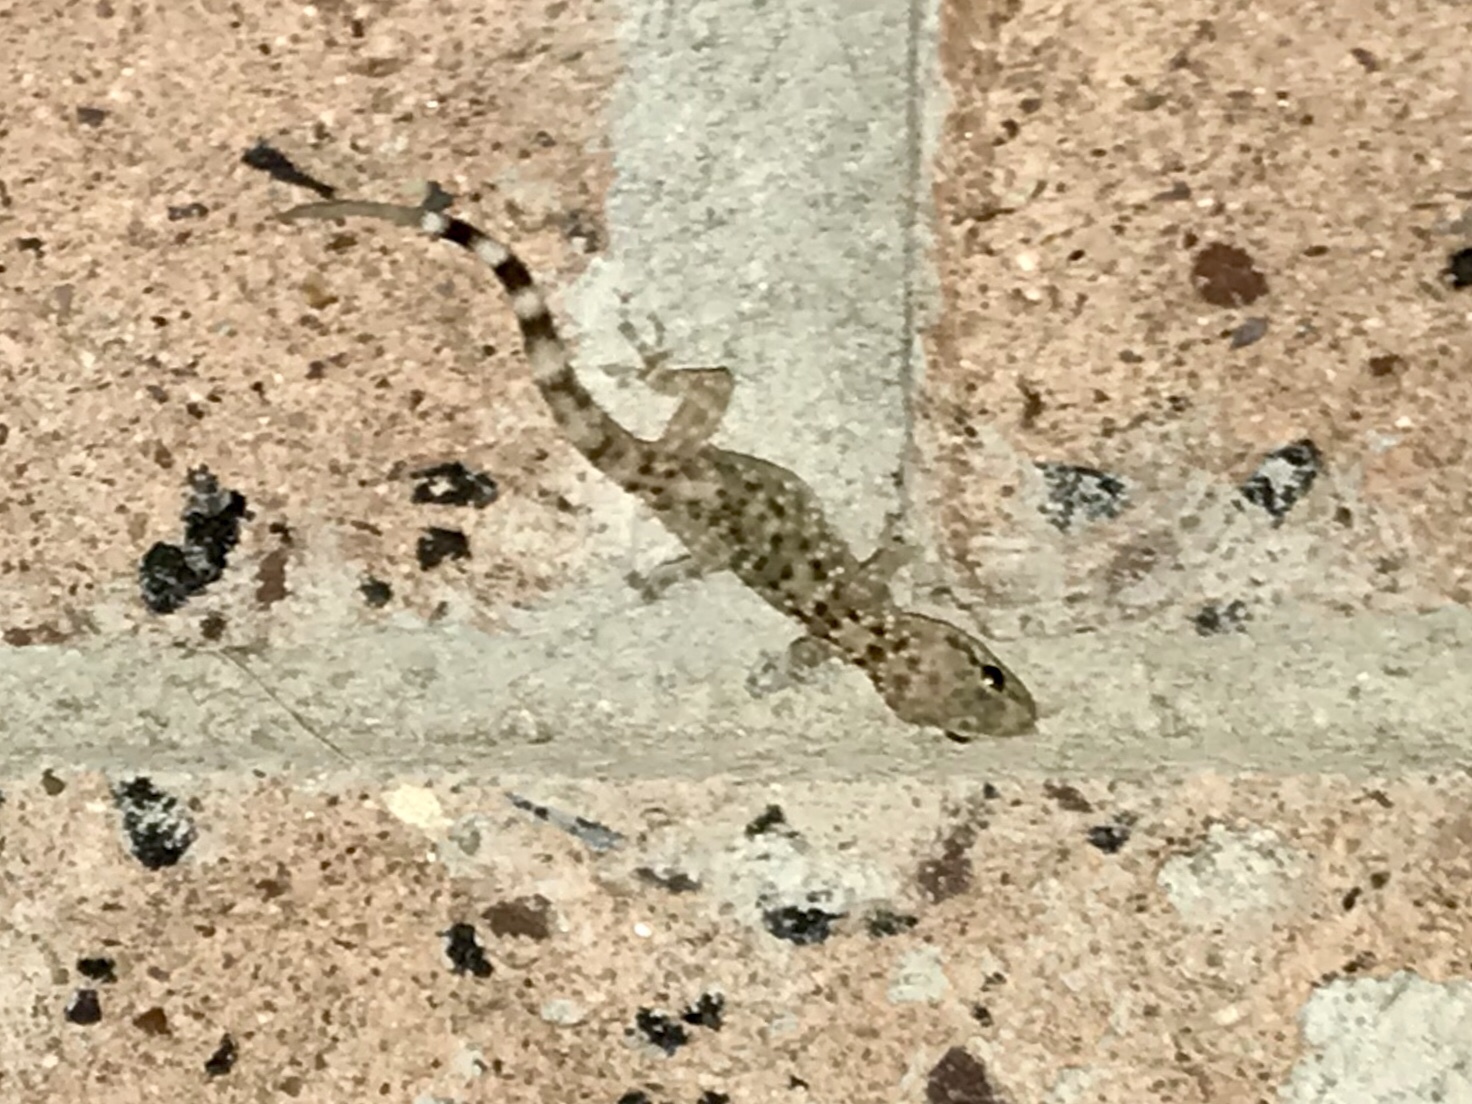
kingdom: Animalia
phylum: Chordata
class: Squamata
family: Gekkonidae
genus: Hemidactylus
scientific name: Hemidactylus turcicus
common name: Turkish gecko
